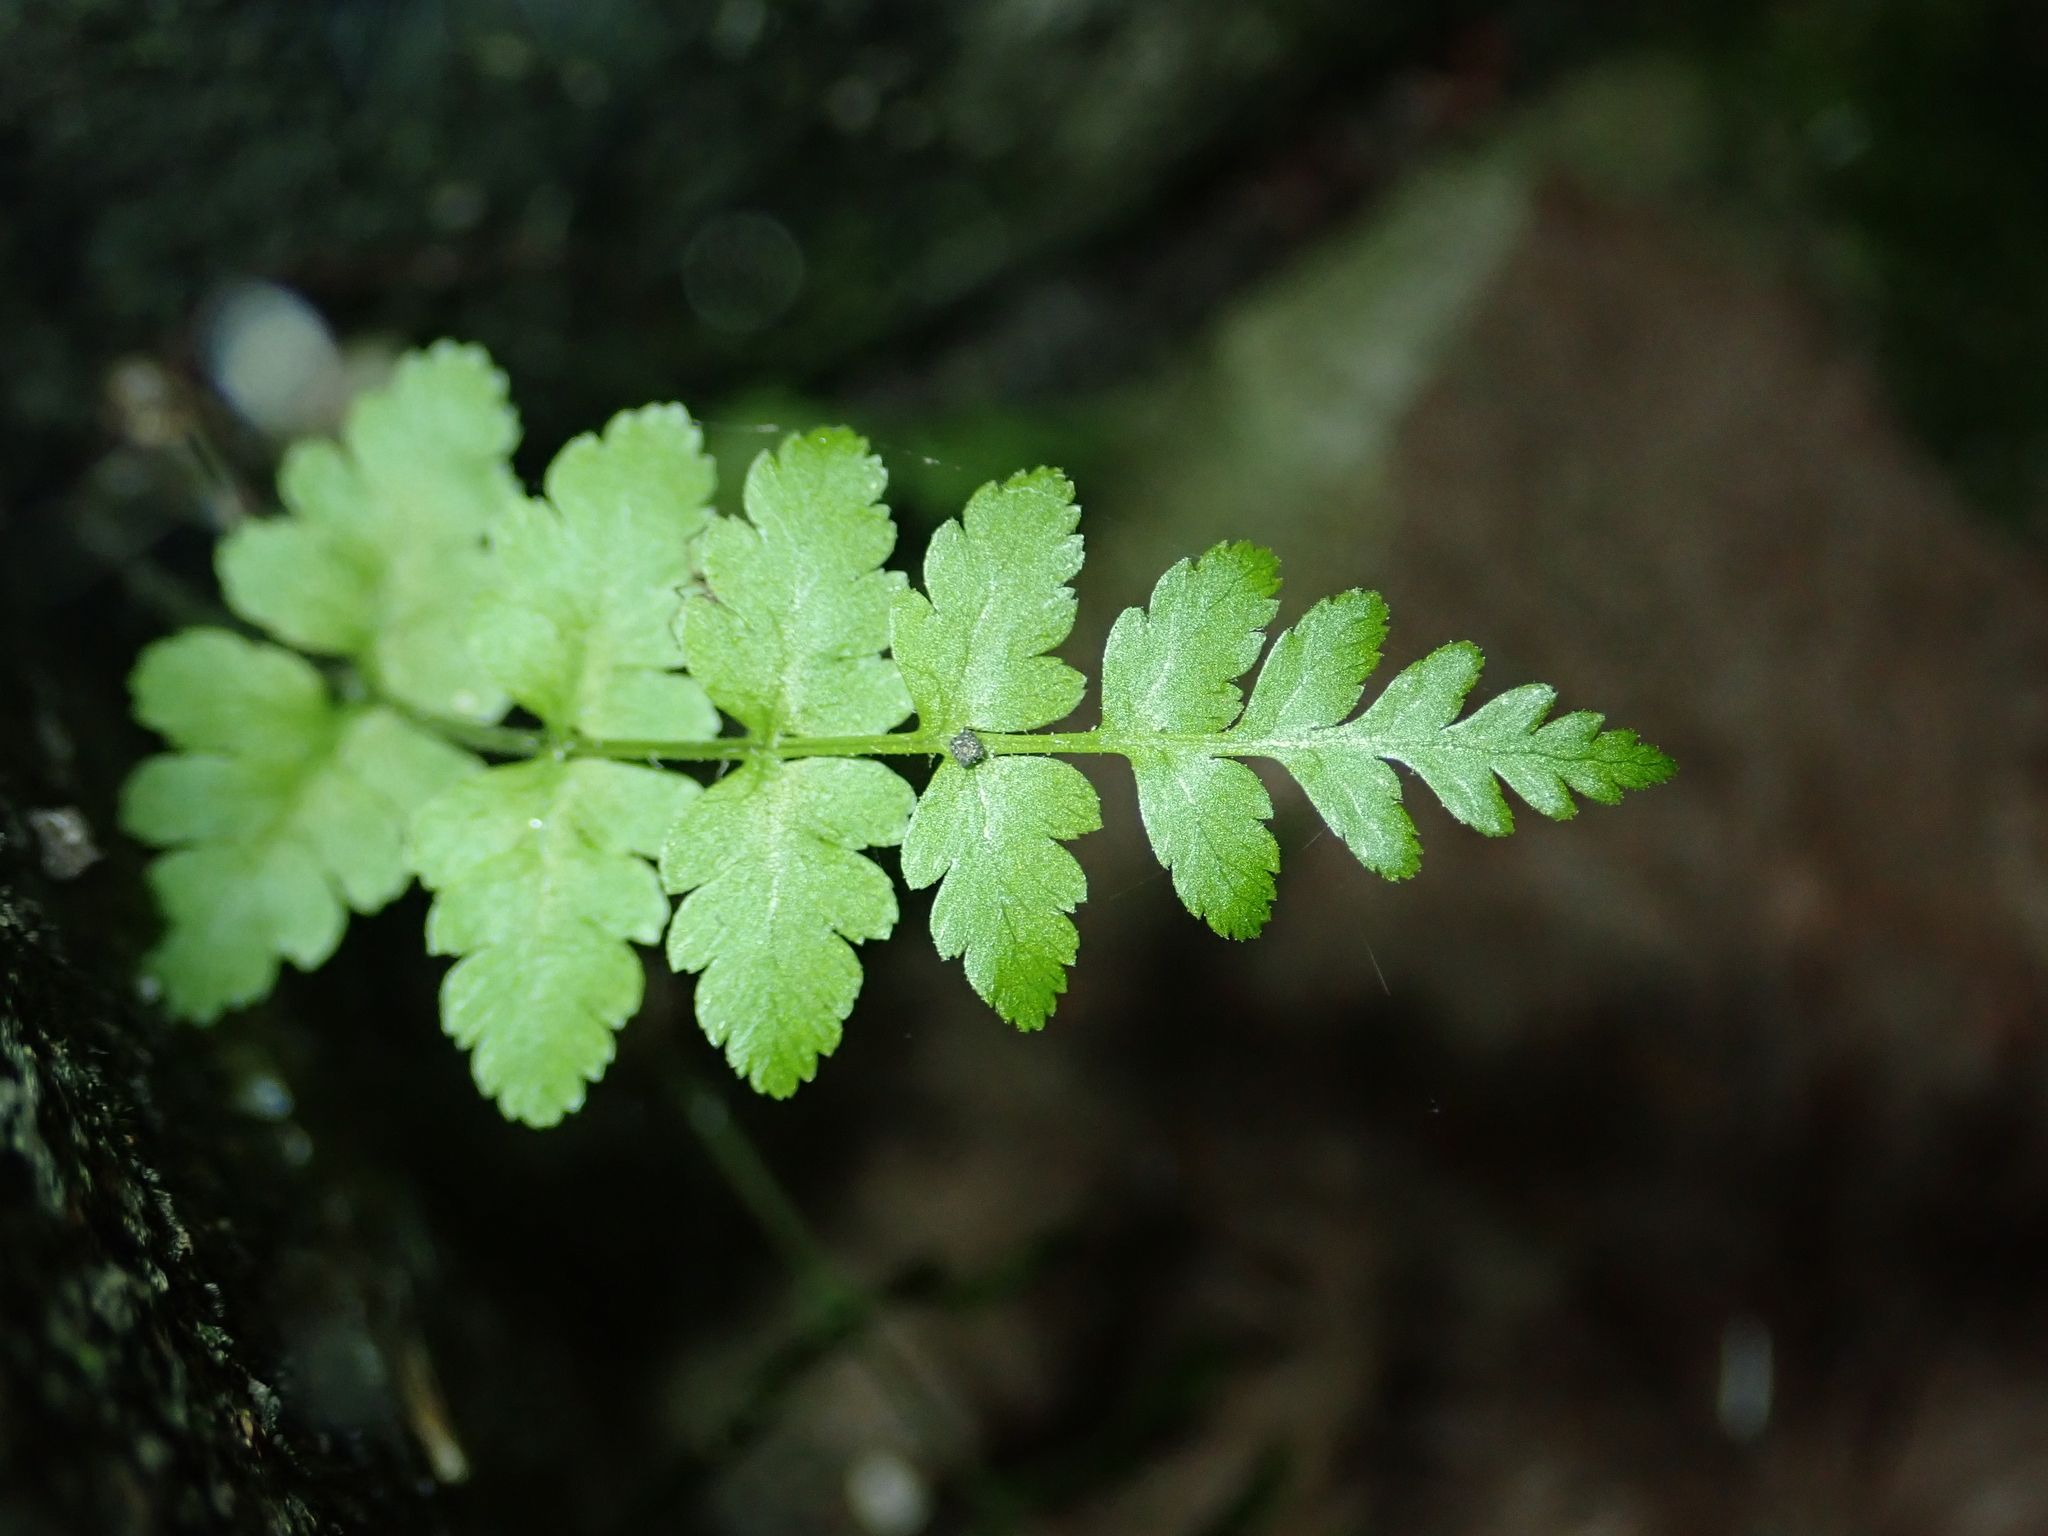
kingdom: Plantae
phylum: Tracheophyta
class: Polypodiopsida
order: Polypodiales
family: Dryopteridaceae
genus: Dryopteris
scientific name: Dryopteris filix-mas
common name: Male fern
